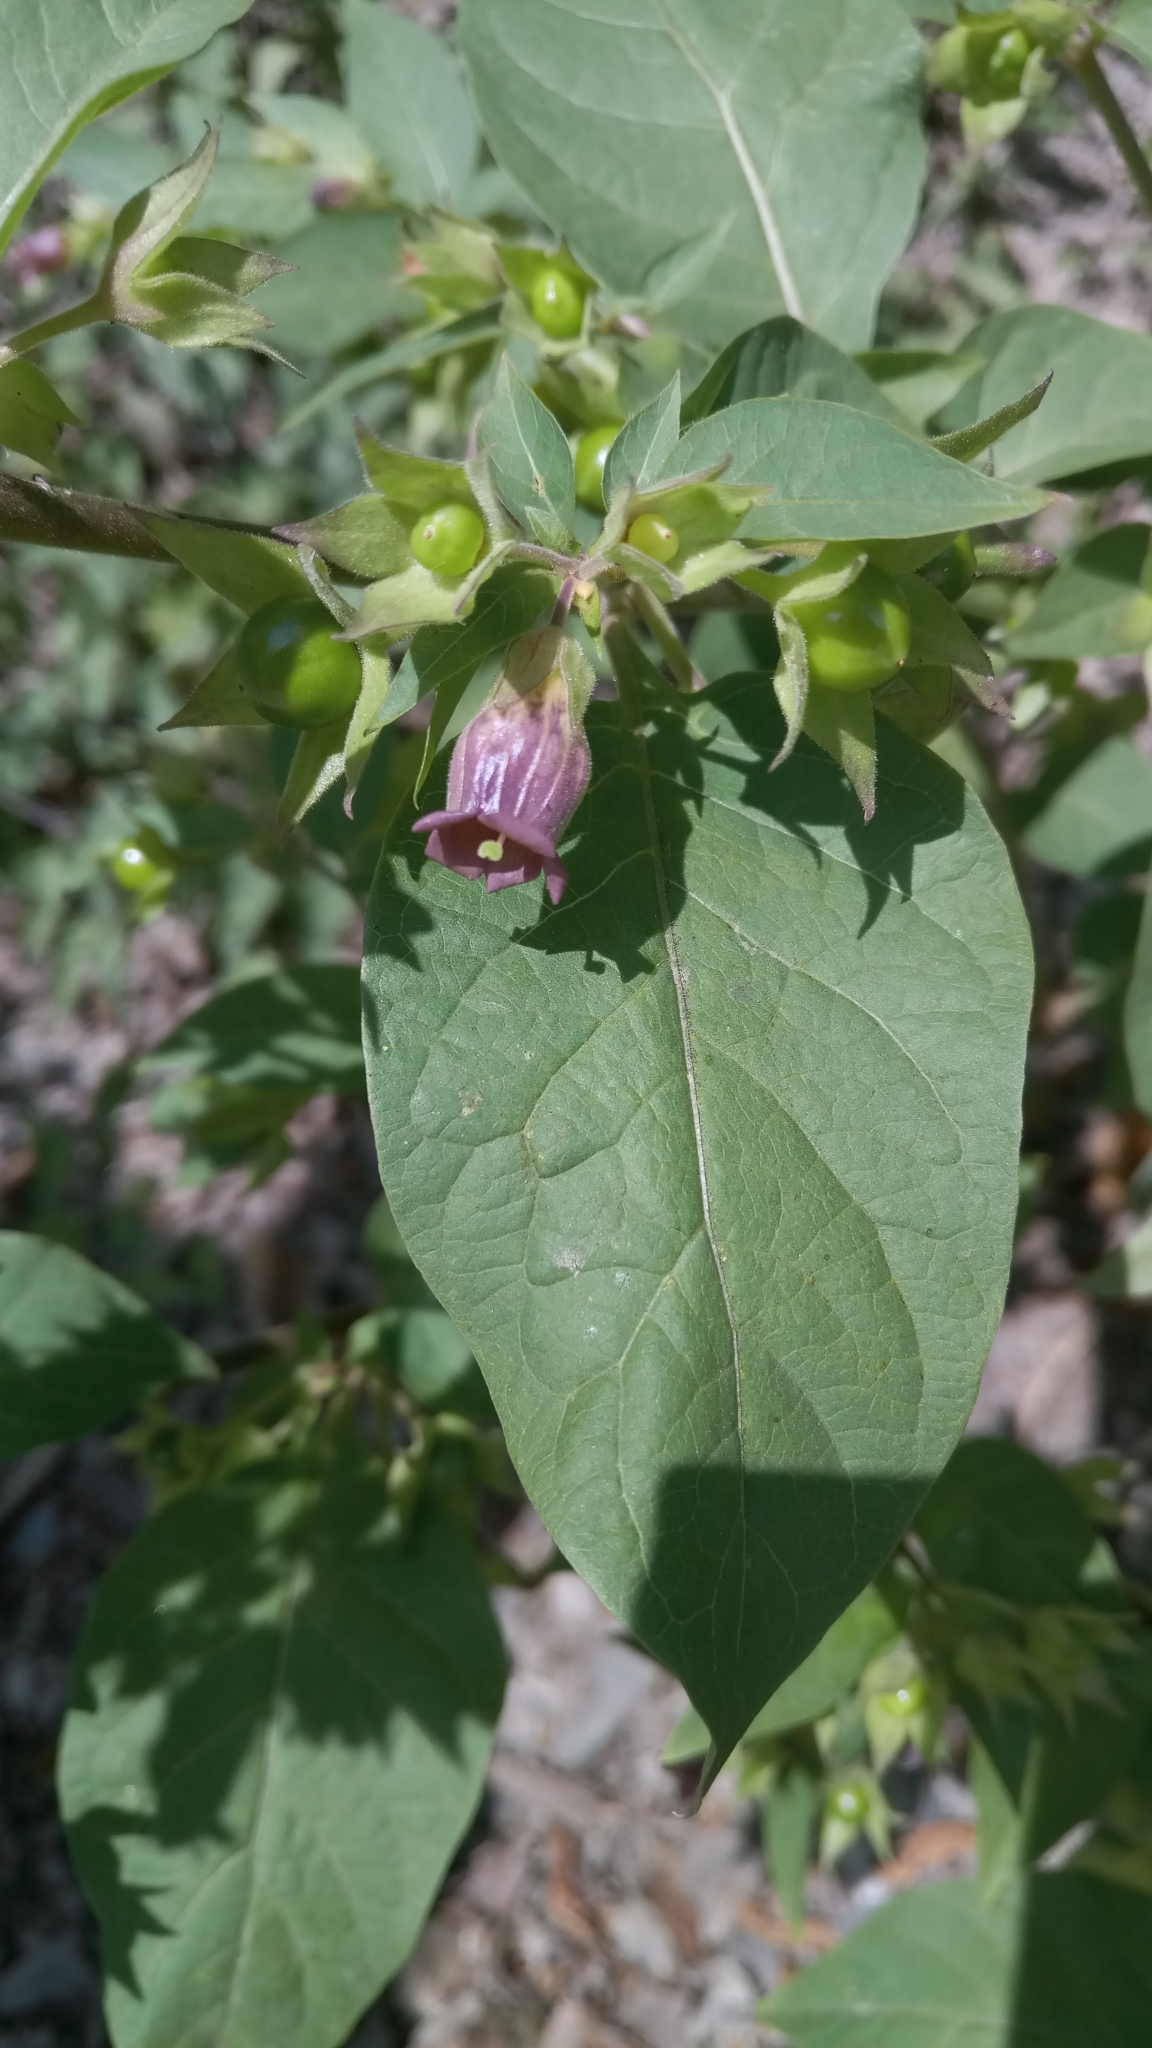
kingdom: Plantae
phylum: Tracheophyta
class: Magnoliopsida
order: Solanales
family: Solanaceae
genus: Atropa
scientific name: Atropa belladonna
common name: Deadly nightshade
